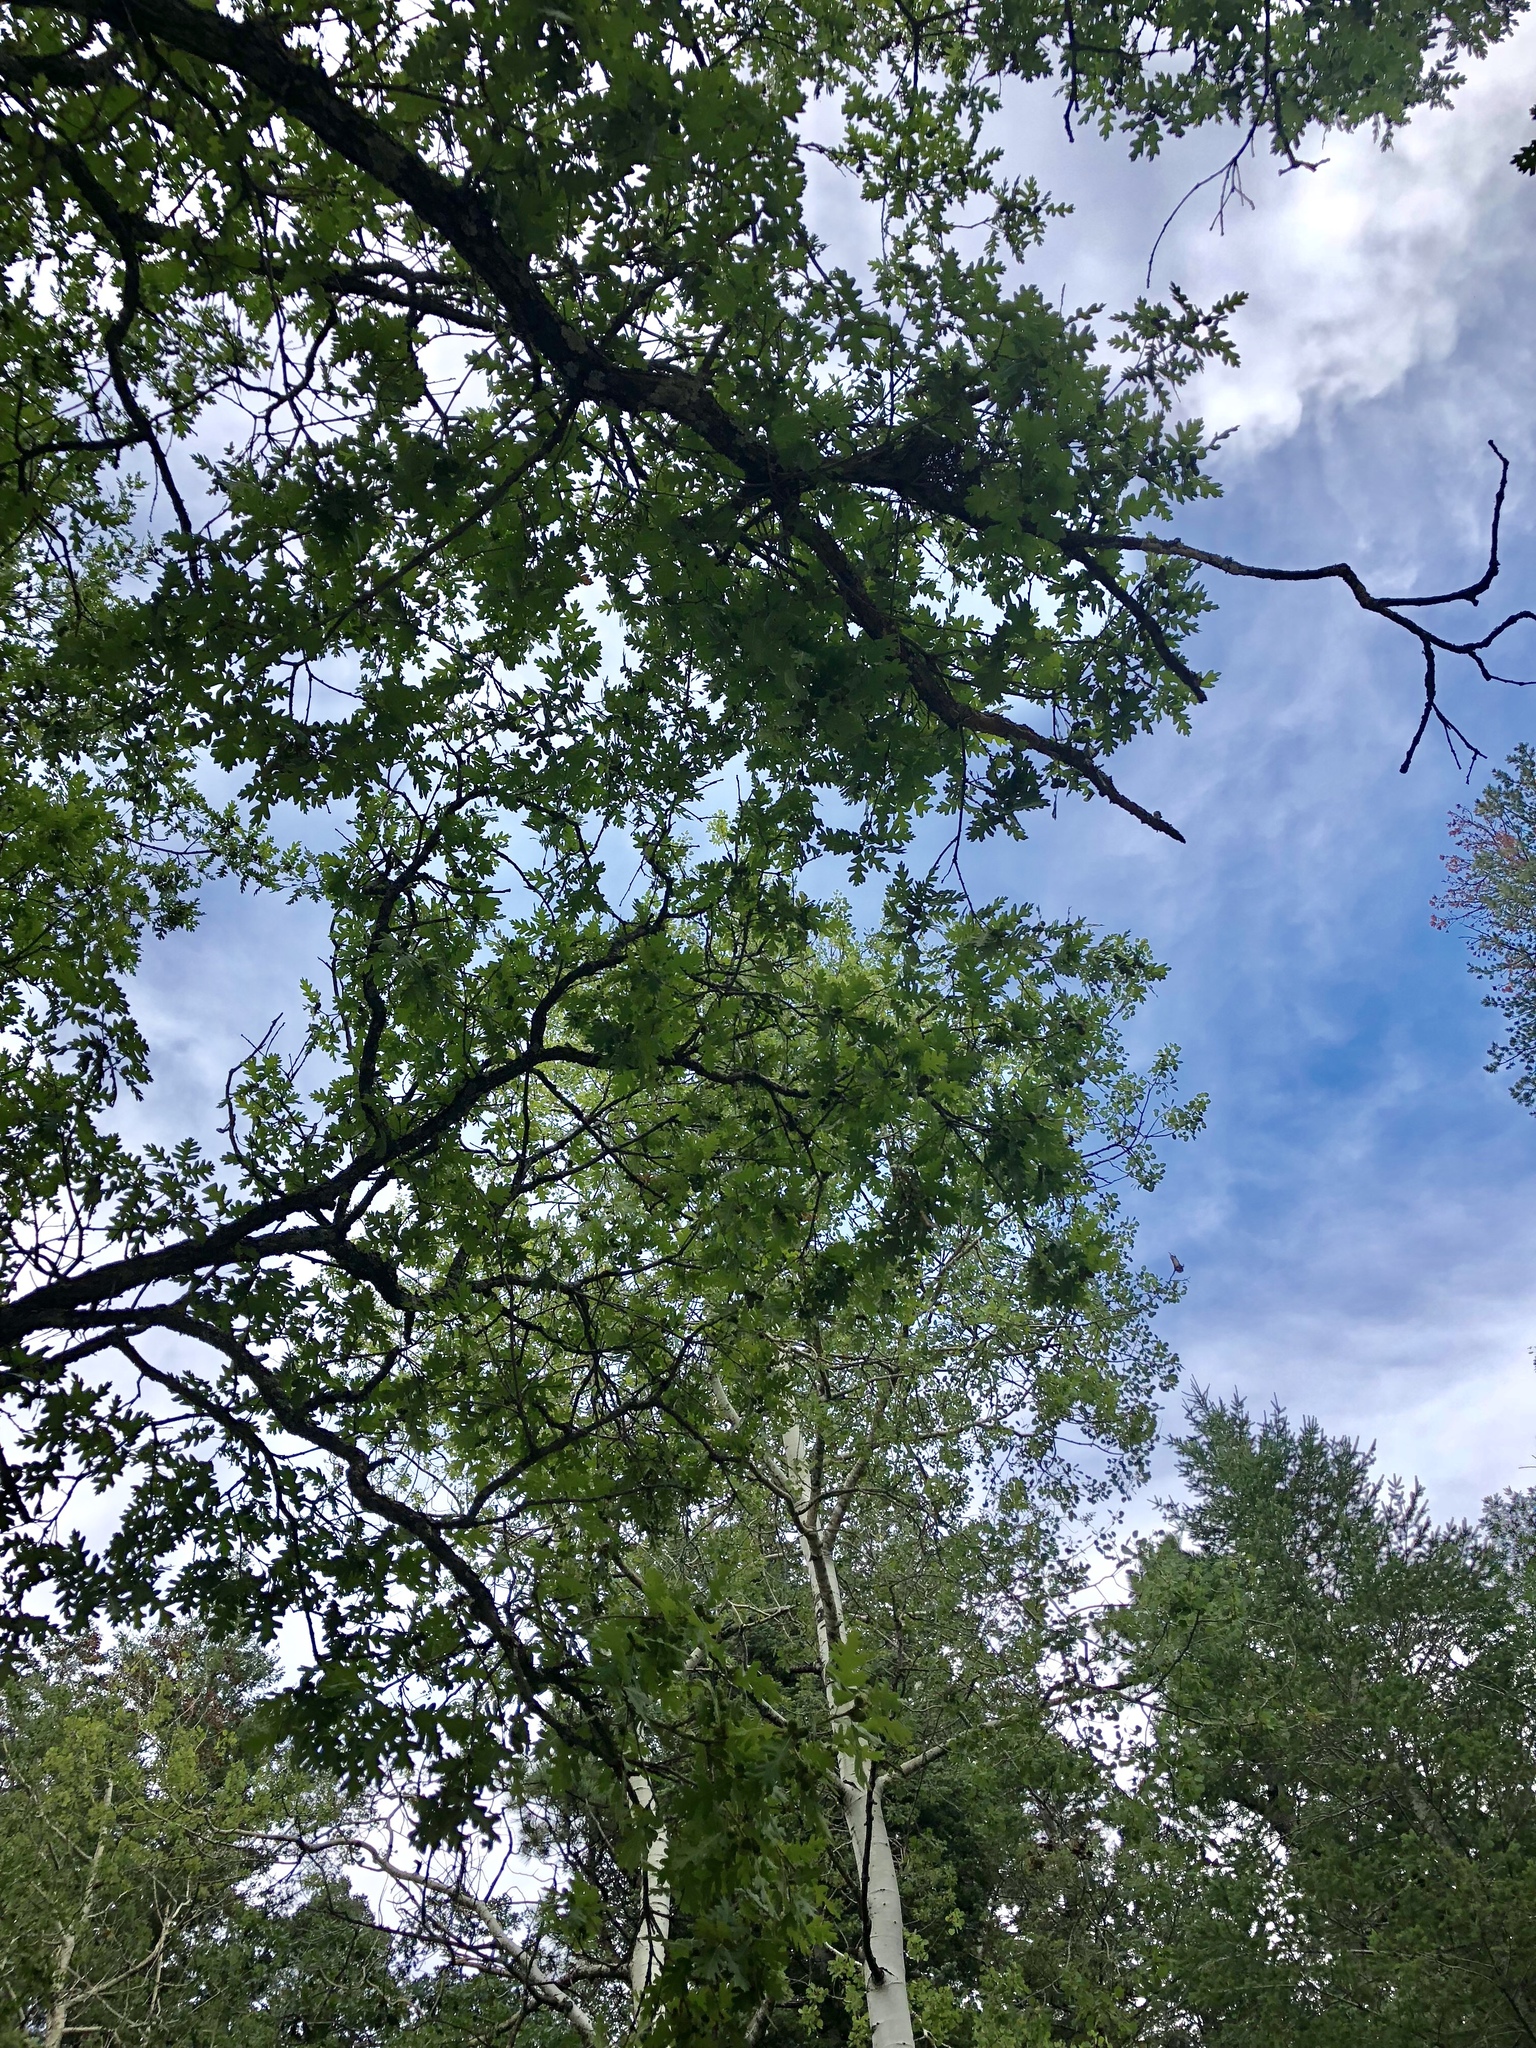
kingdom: Plantae
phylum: Tracheophyta
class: Magnoliopsida
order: Fagales
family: Fagaceae
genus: Quercus
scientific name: Quercus gambelii
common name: Gambel oak
